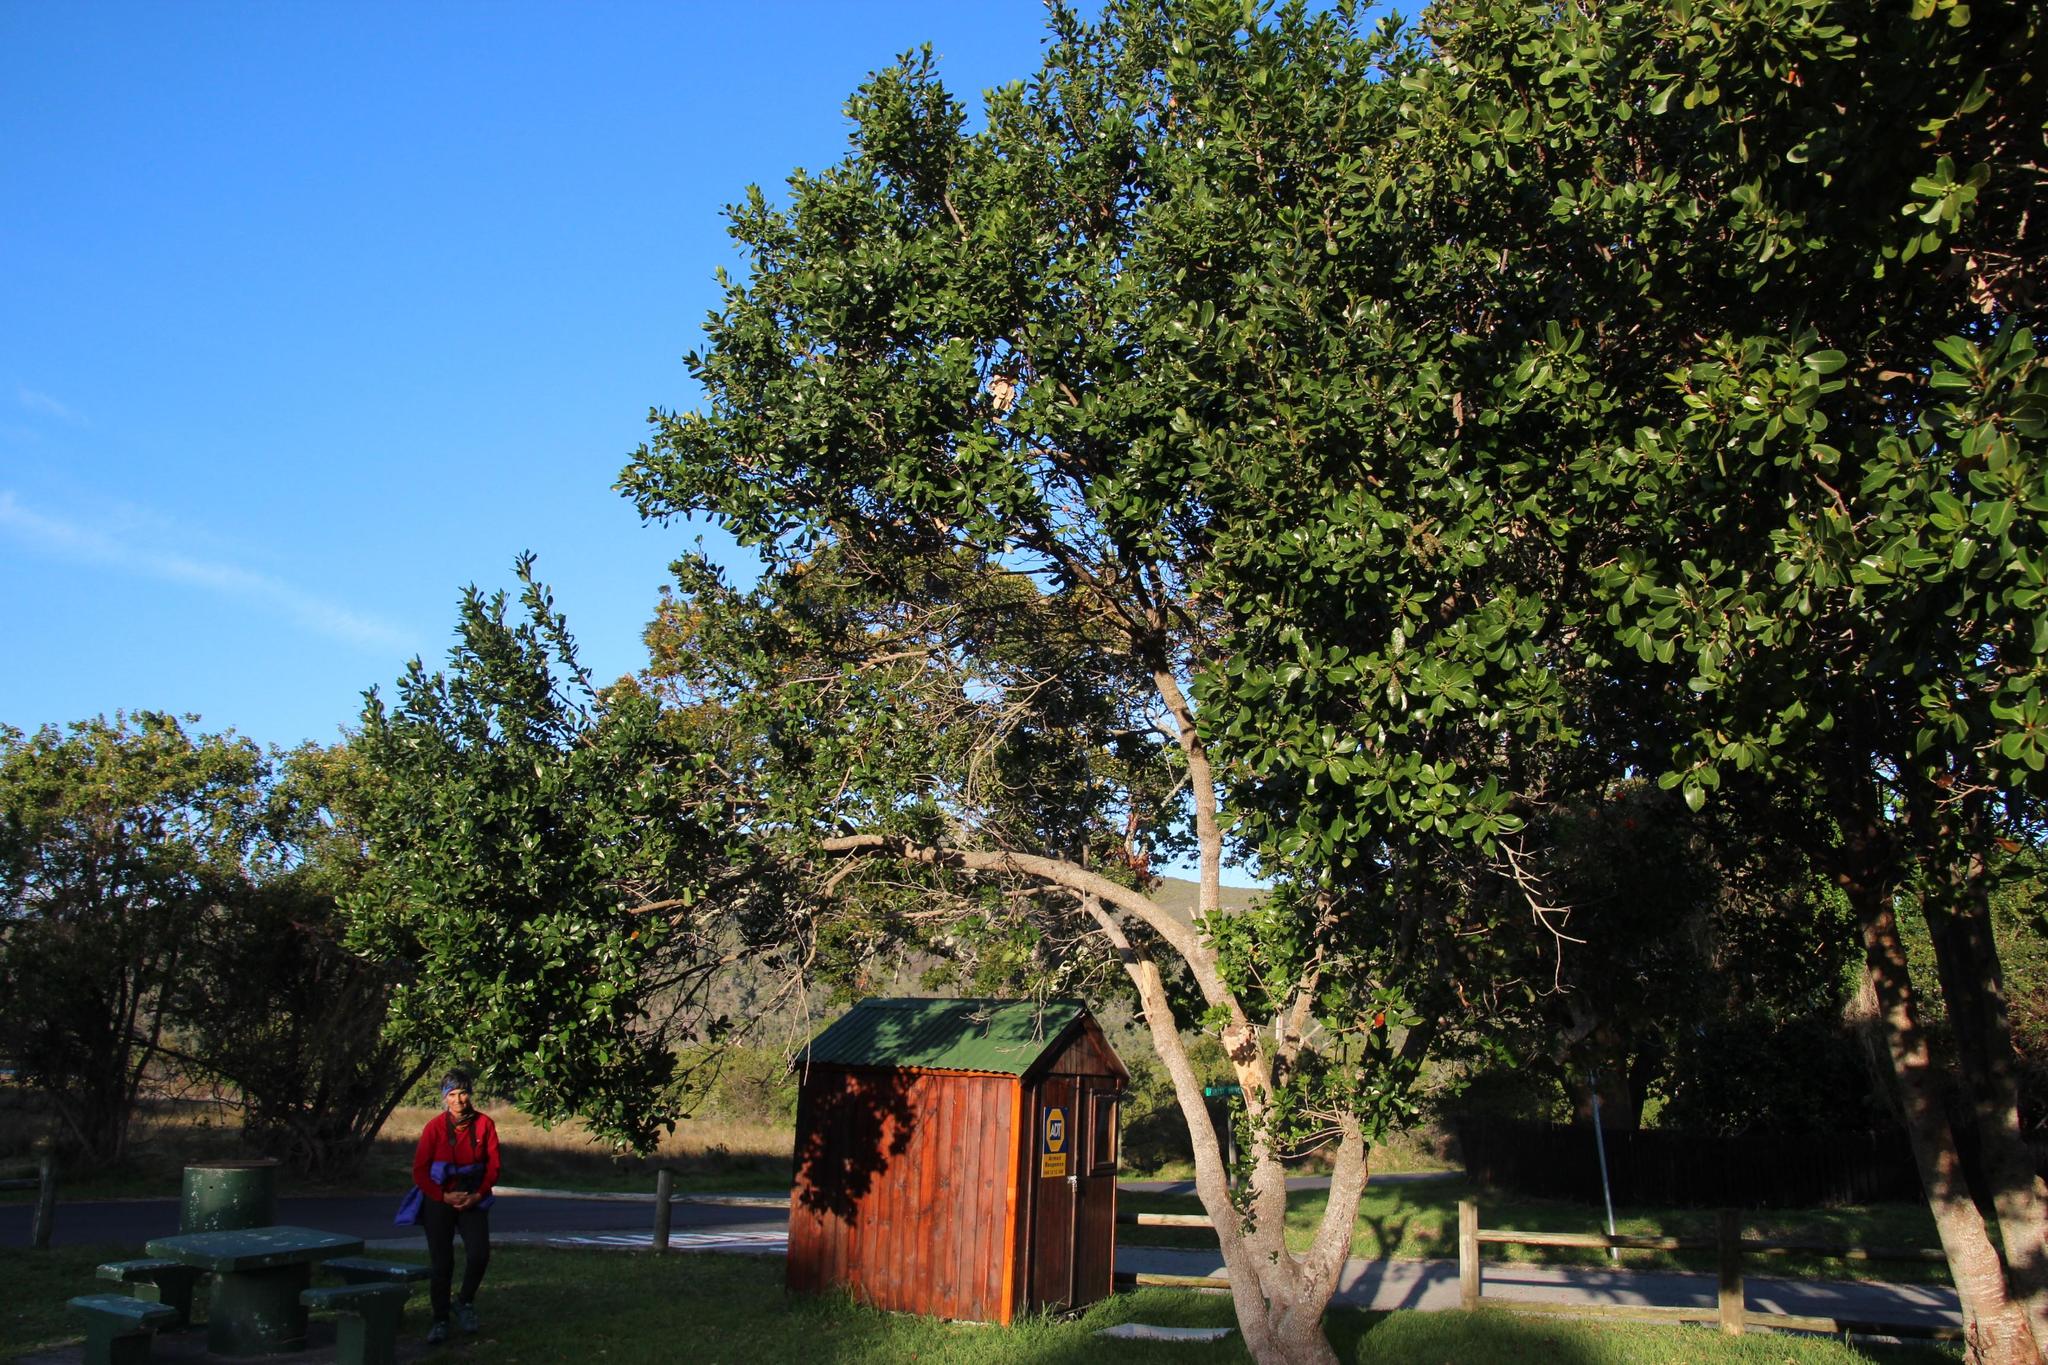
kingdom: Plantae
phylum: Tracheophyta
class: Magnoliopsida
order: Ericales
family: Sapotaceae
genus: Sideroxylon
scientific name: Sideroxylon inerme
